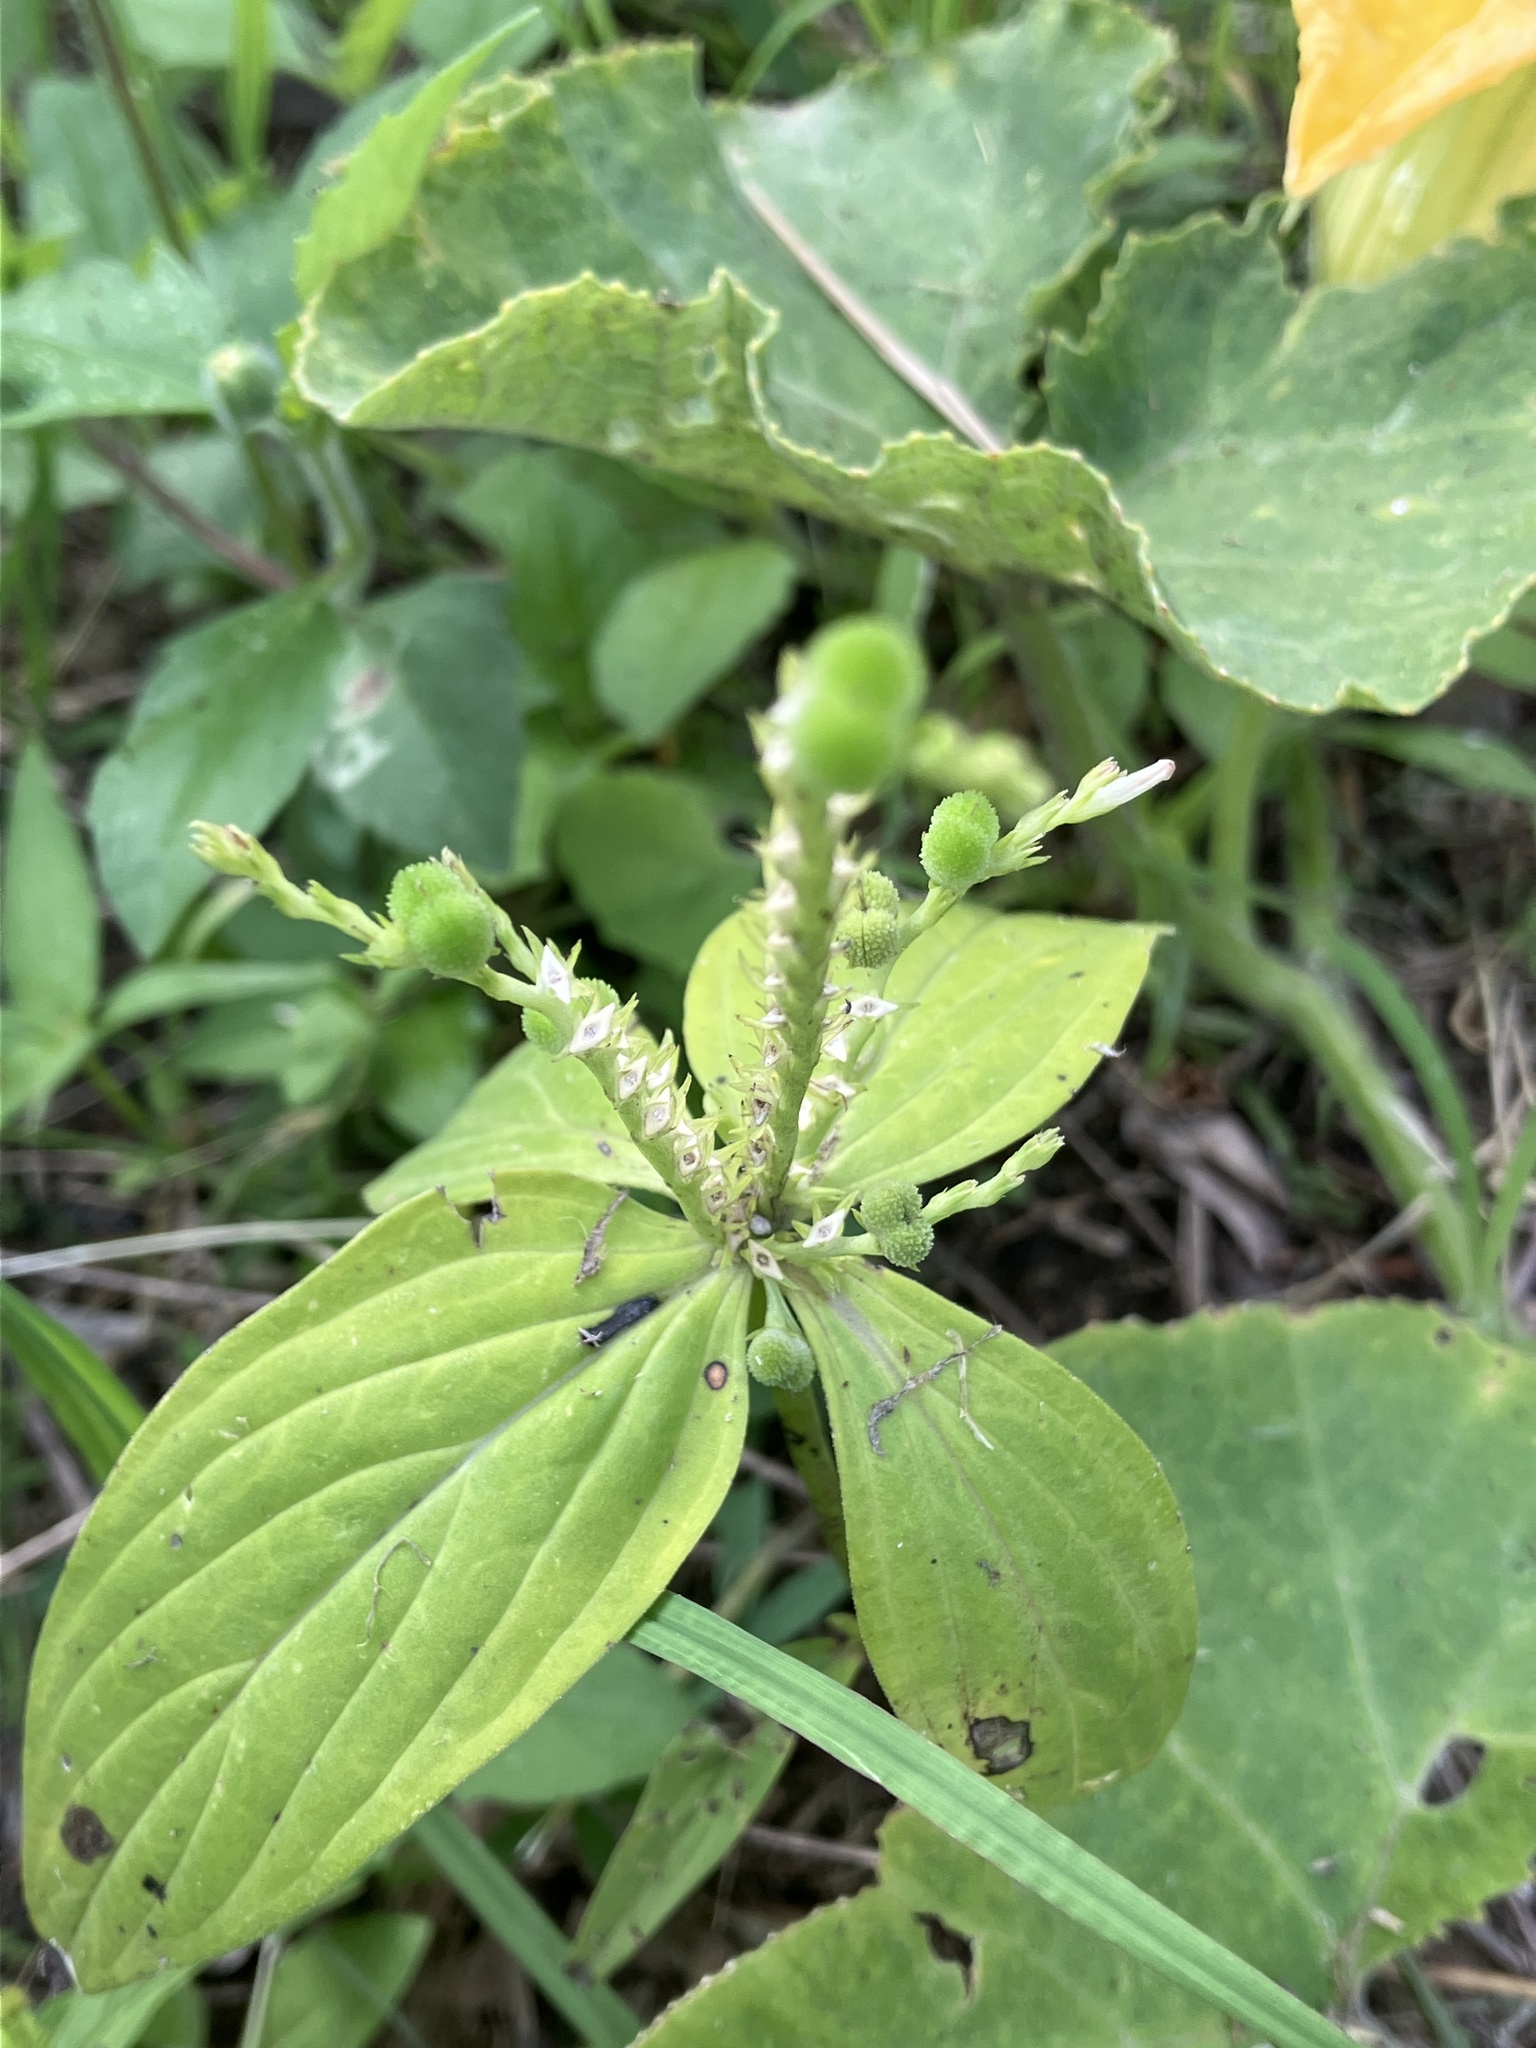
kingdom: Plantae
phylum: Tracheophyta
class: Magnoliopsida
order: Gentianales
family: Loganiaceae
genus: Spigelia
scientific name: Spigelia anthelmia
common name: West indian-pink
